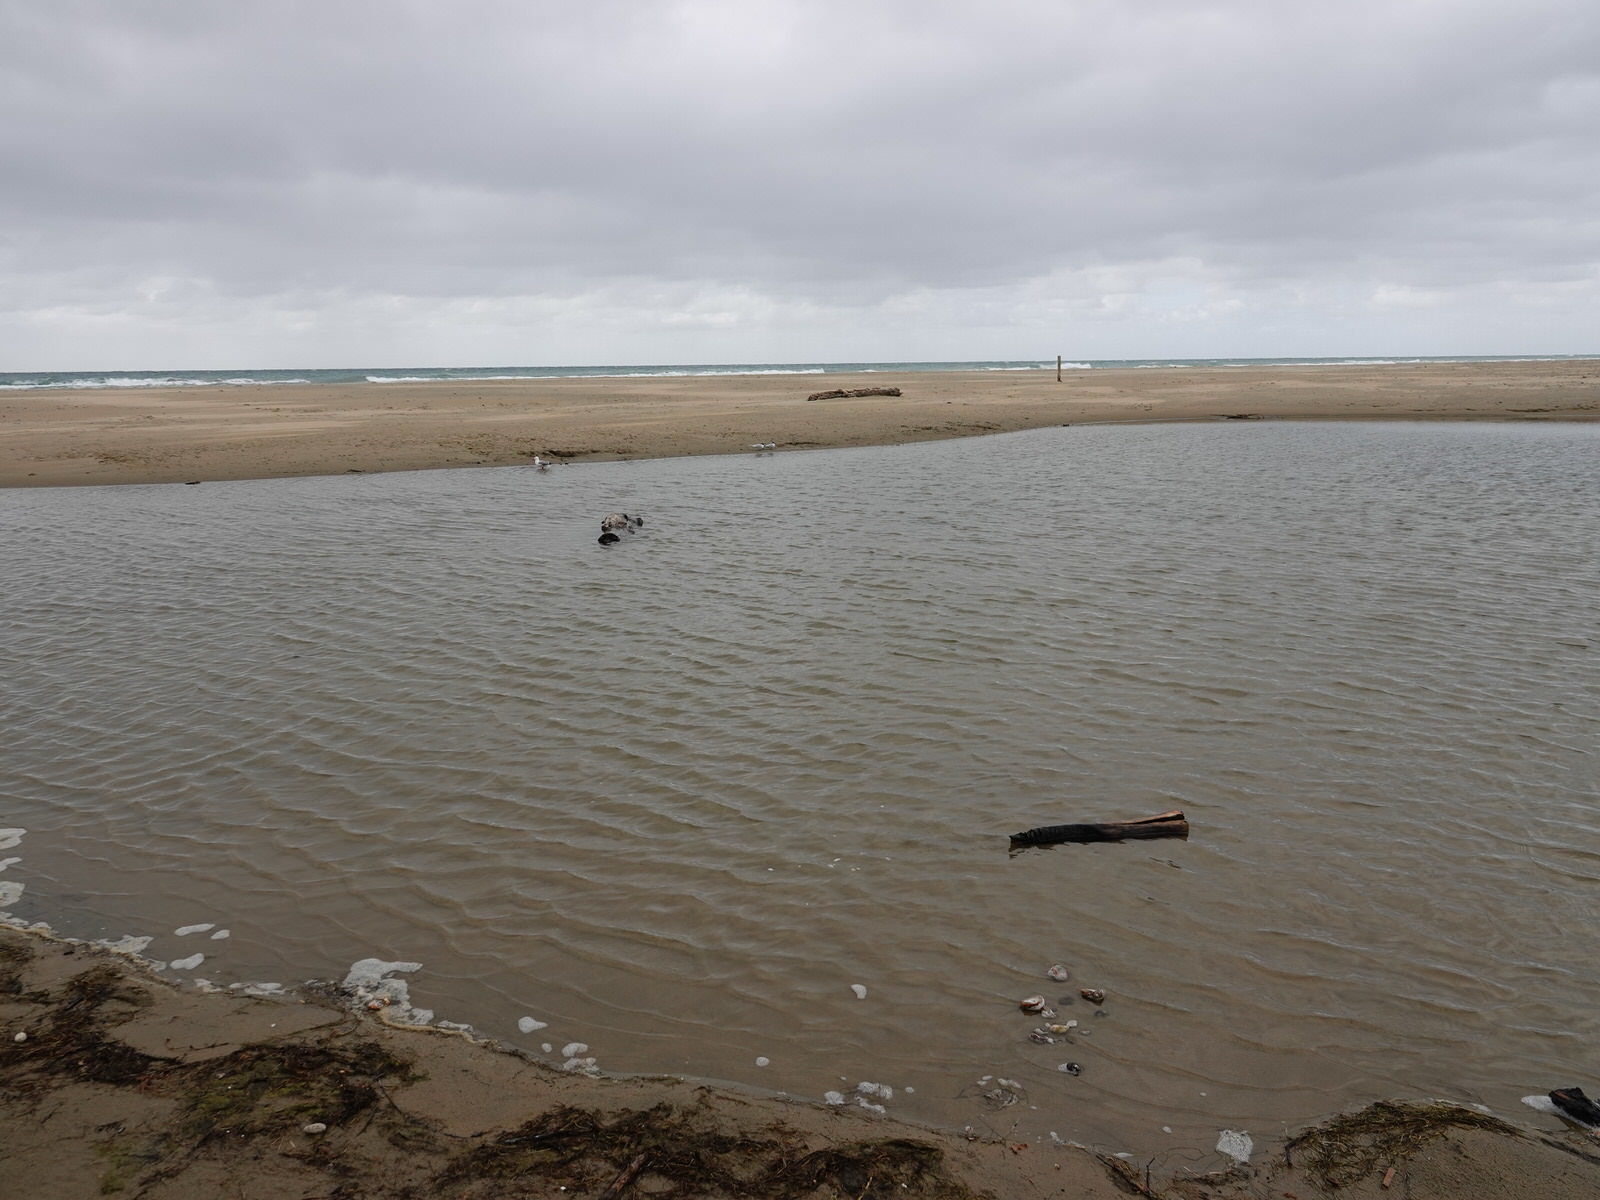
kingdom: Animalia
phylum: Chordata
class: Aves
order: Charadriiformes
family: Laridae
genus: Chroicocephalus
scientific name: Chroicocephalus novaehollandiae
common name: Silver gull
